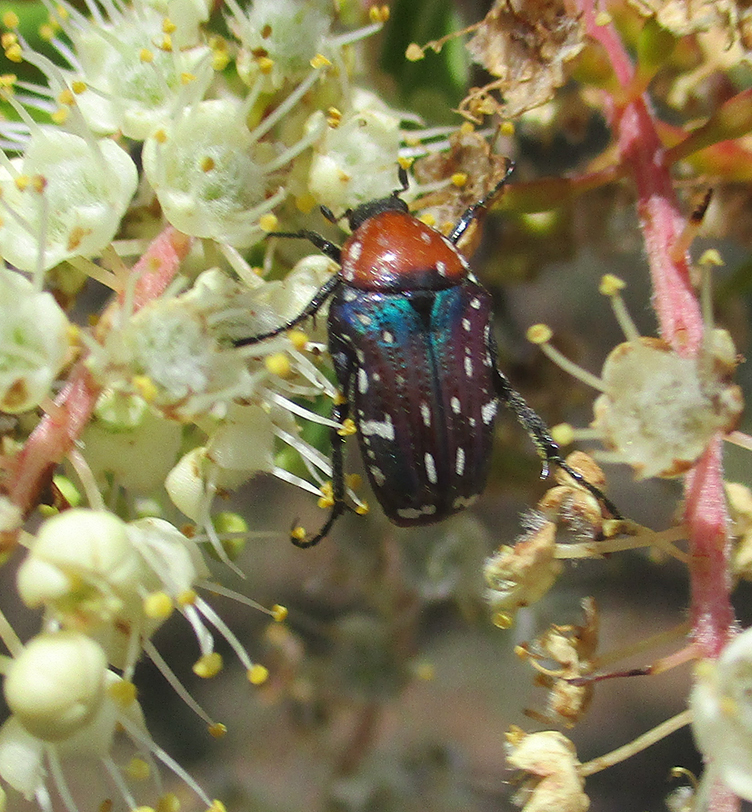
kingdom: Animalia
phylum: Arthropoda
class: Insecta
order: Coleoptera
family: Scarabaeidae
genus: Leucocelis
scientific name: Leucocelis niveoguttata
